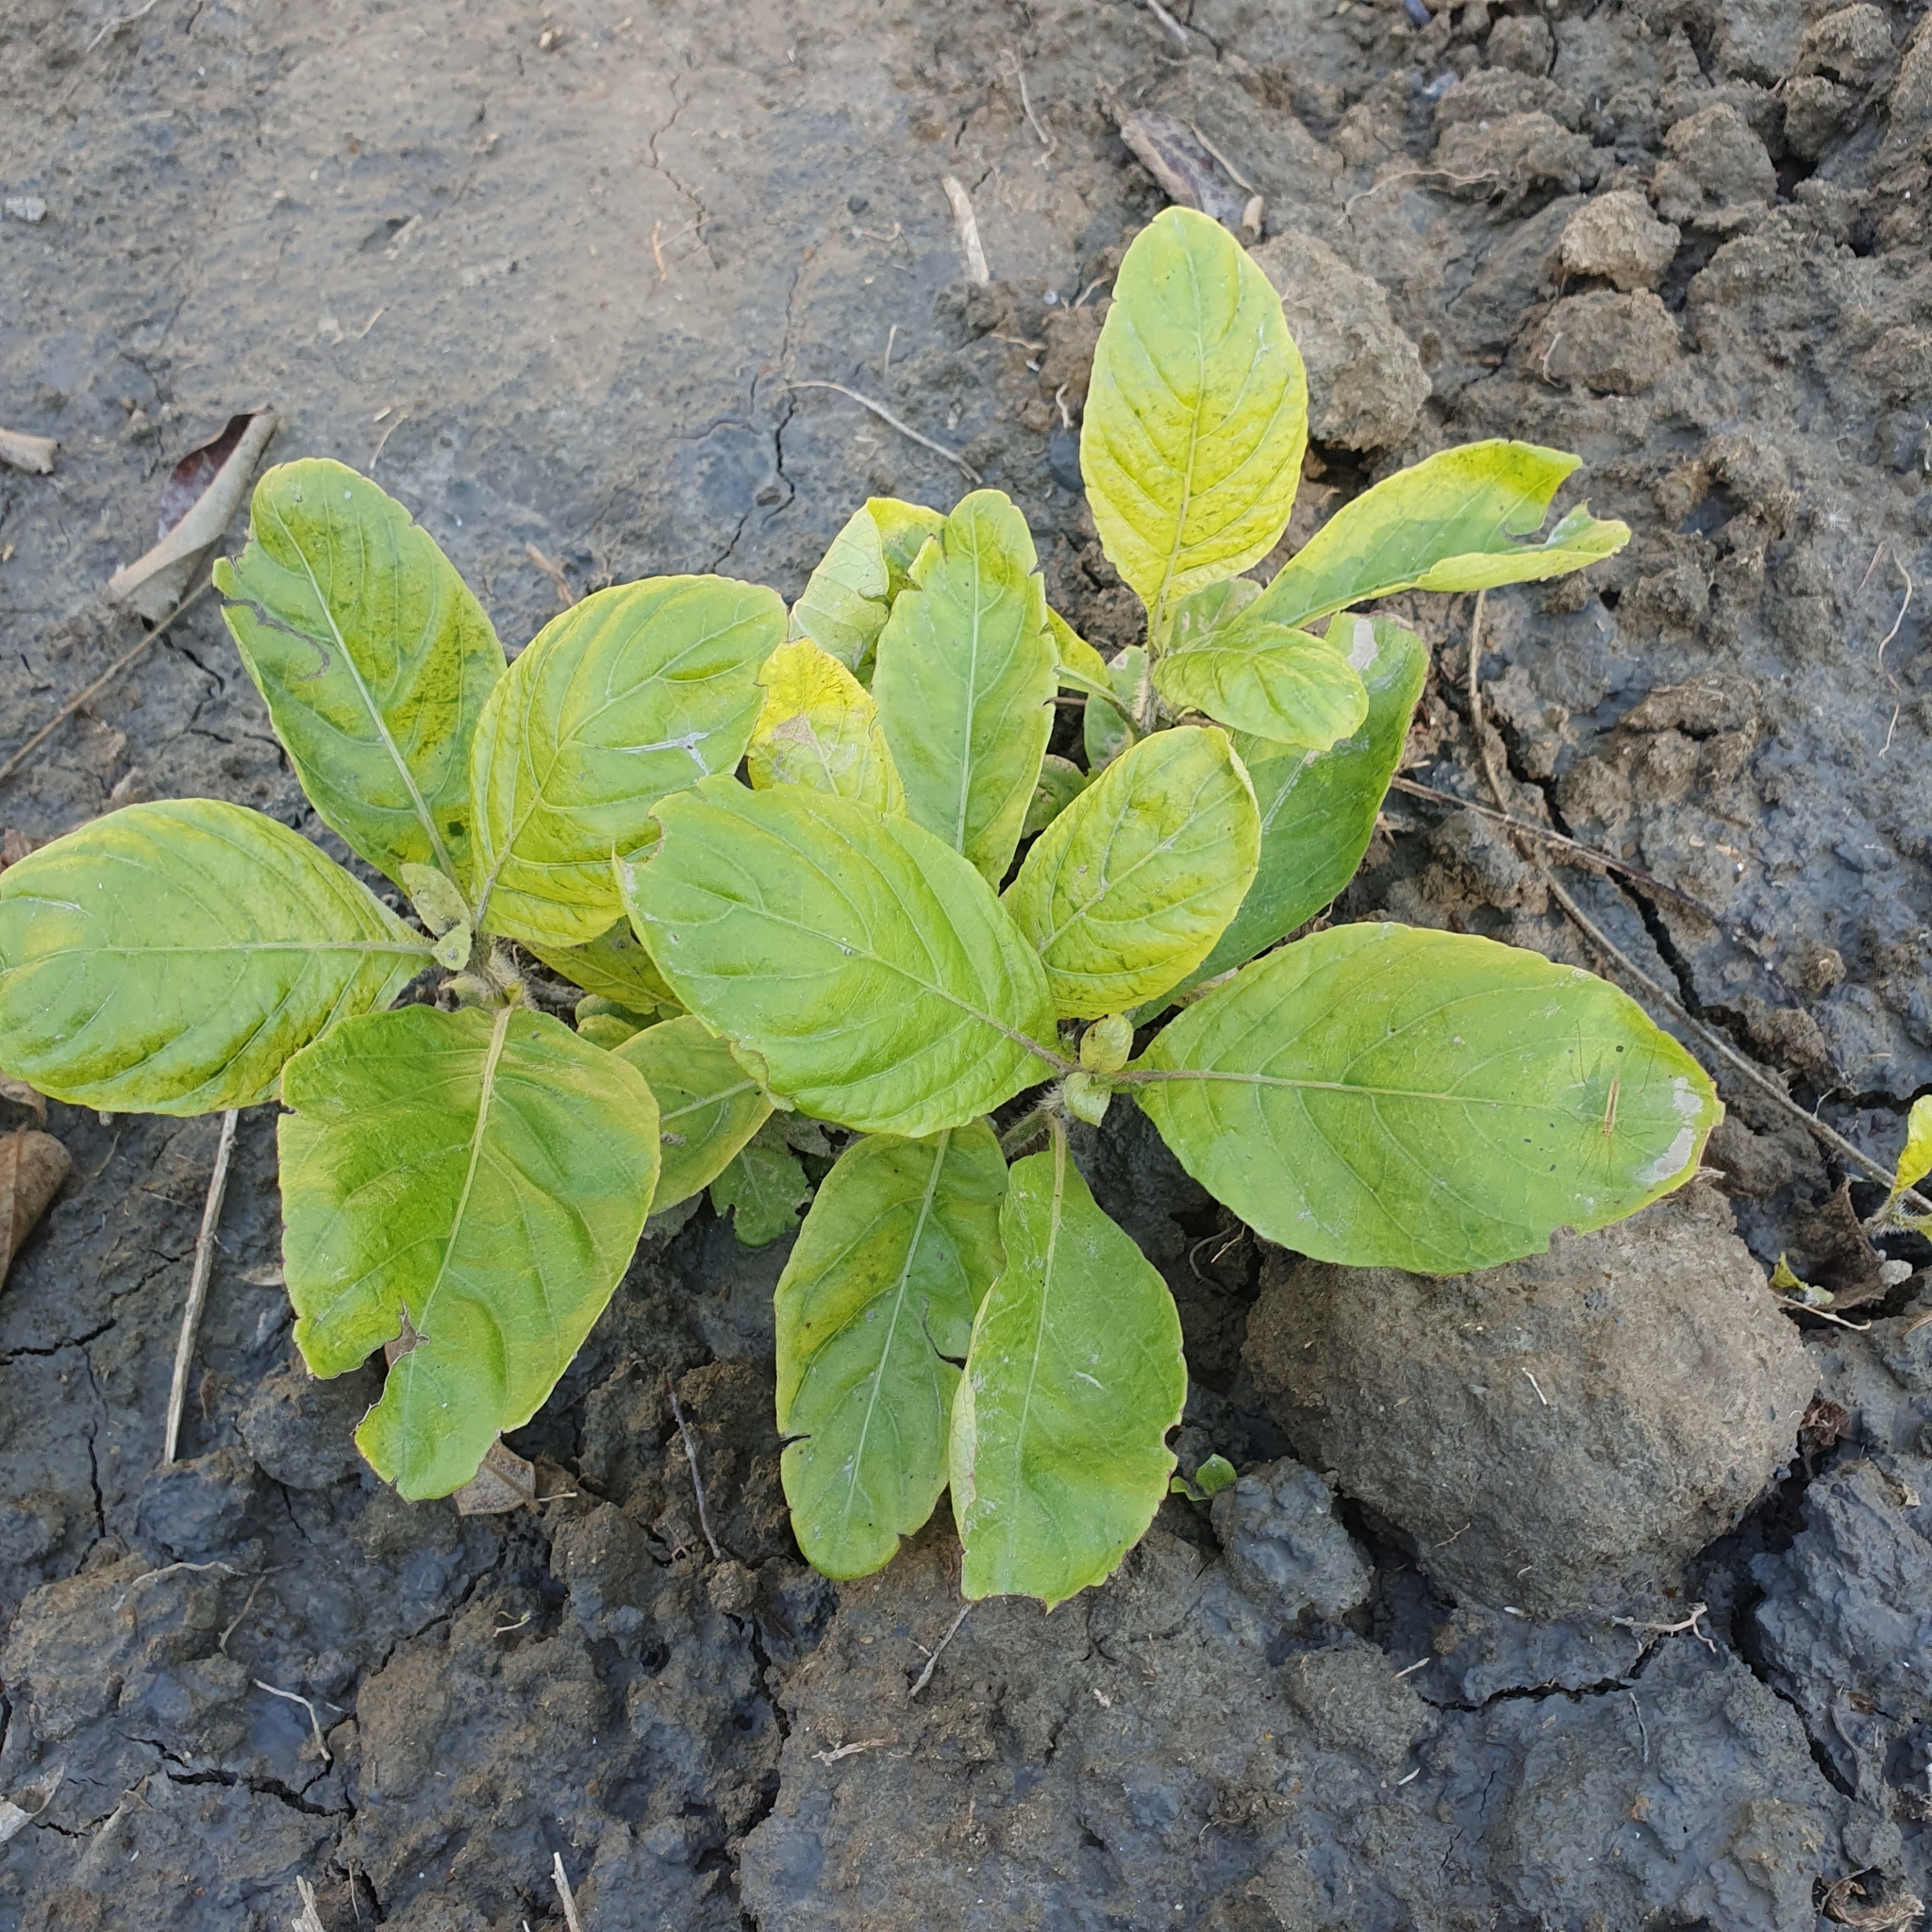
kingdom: Plantae
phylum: Tracheophyta
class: Magnoliopsida
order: Lamiales
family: Acanthaceae
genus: Ruellia
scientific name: Ruellia tuberosa
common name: Devil's bit
